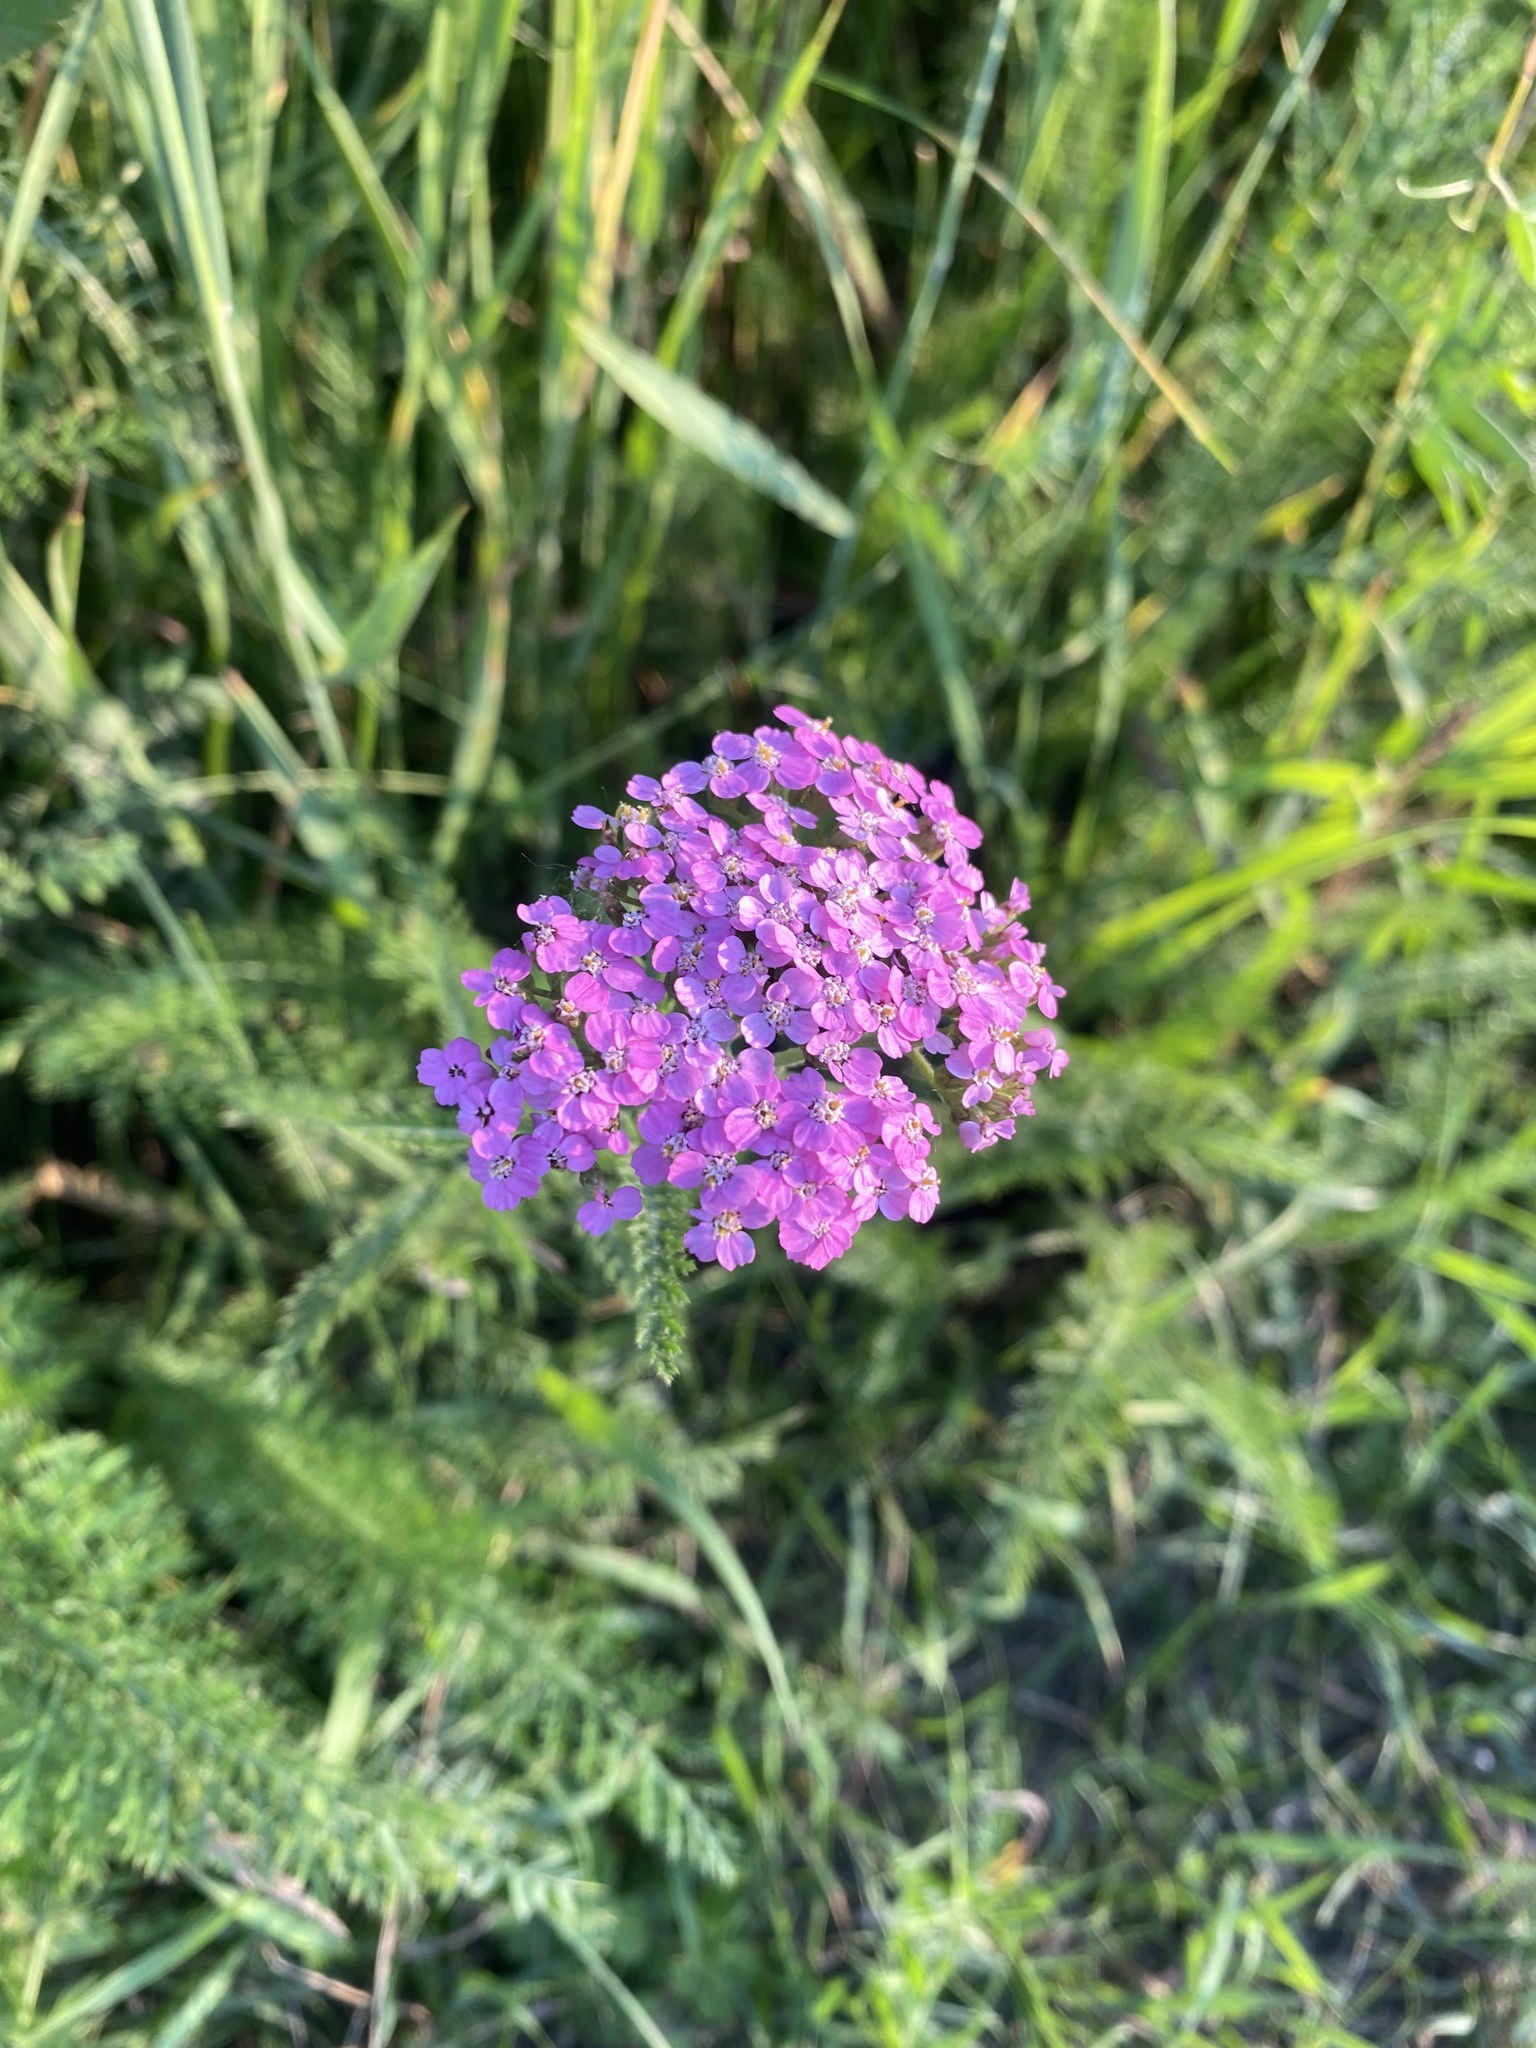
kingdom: Plantae
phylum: Tracheophyta
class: Magnoliopsida
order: Asterales
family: Asteraceae
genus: Achillea
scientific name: Achillea asiatica
